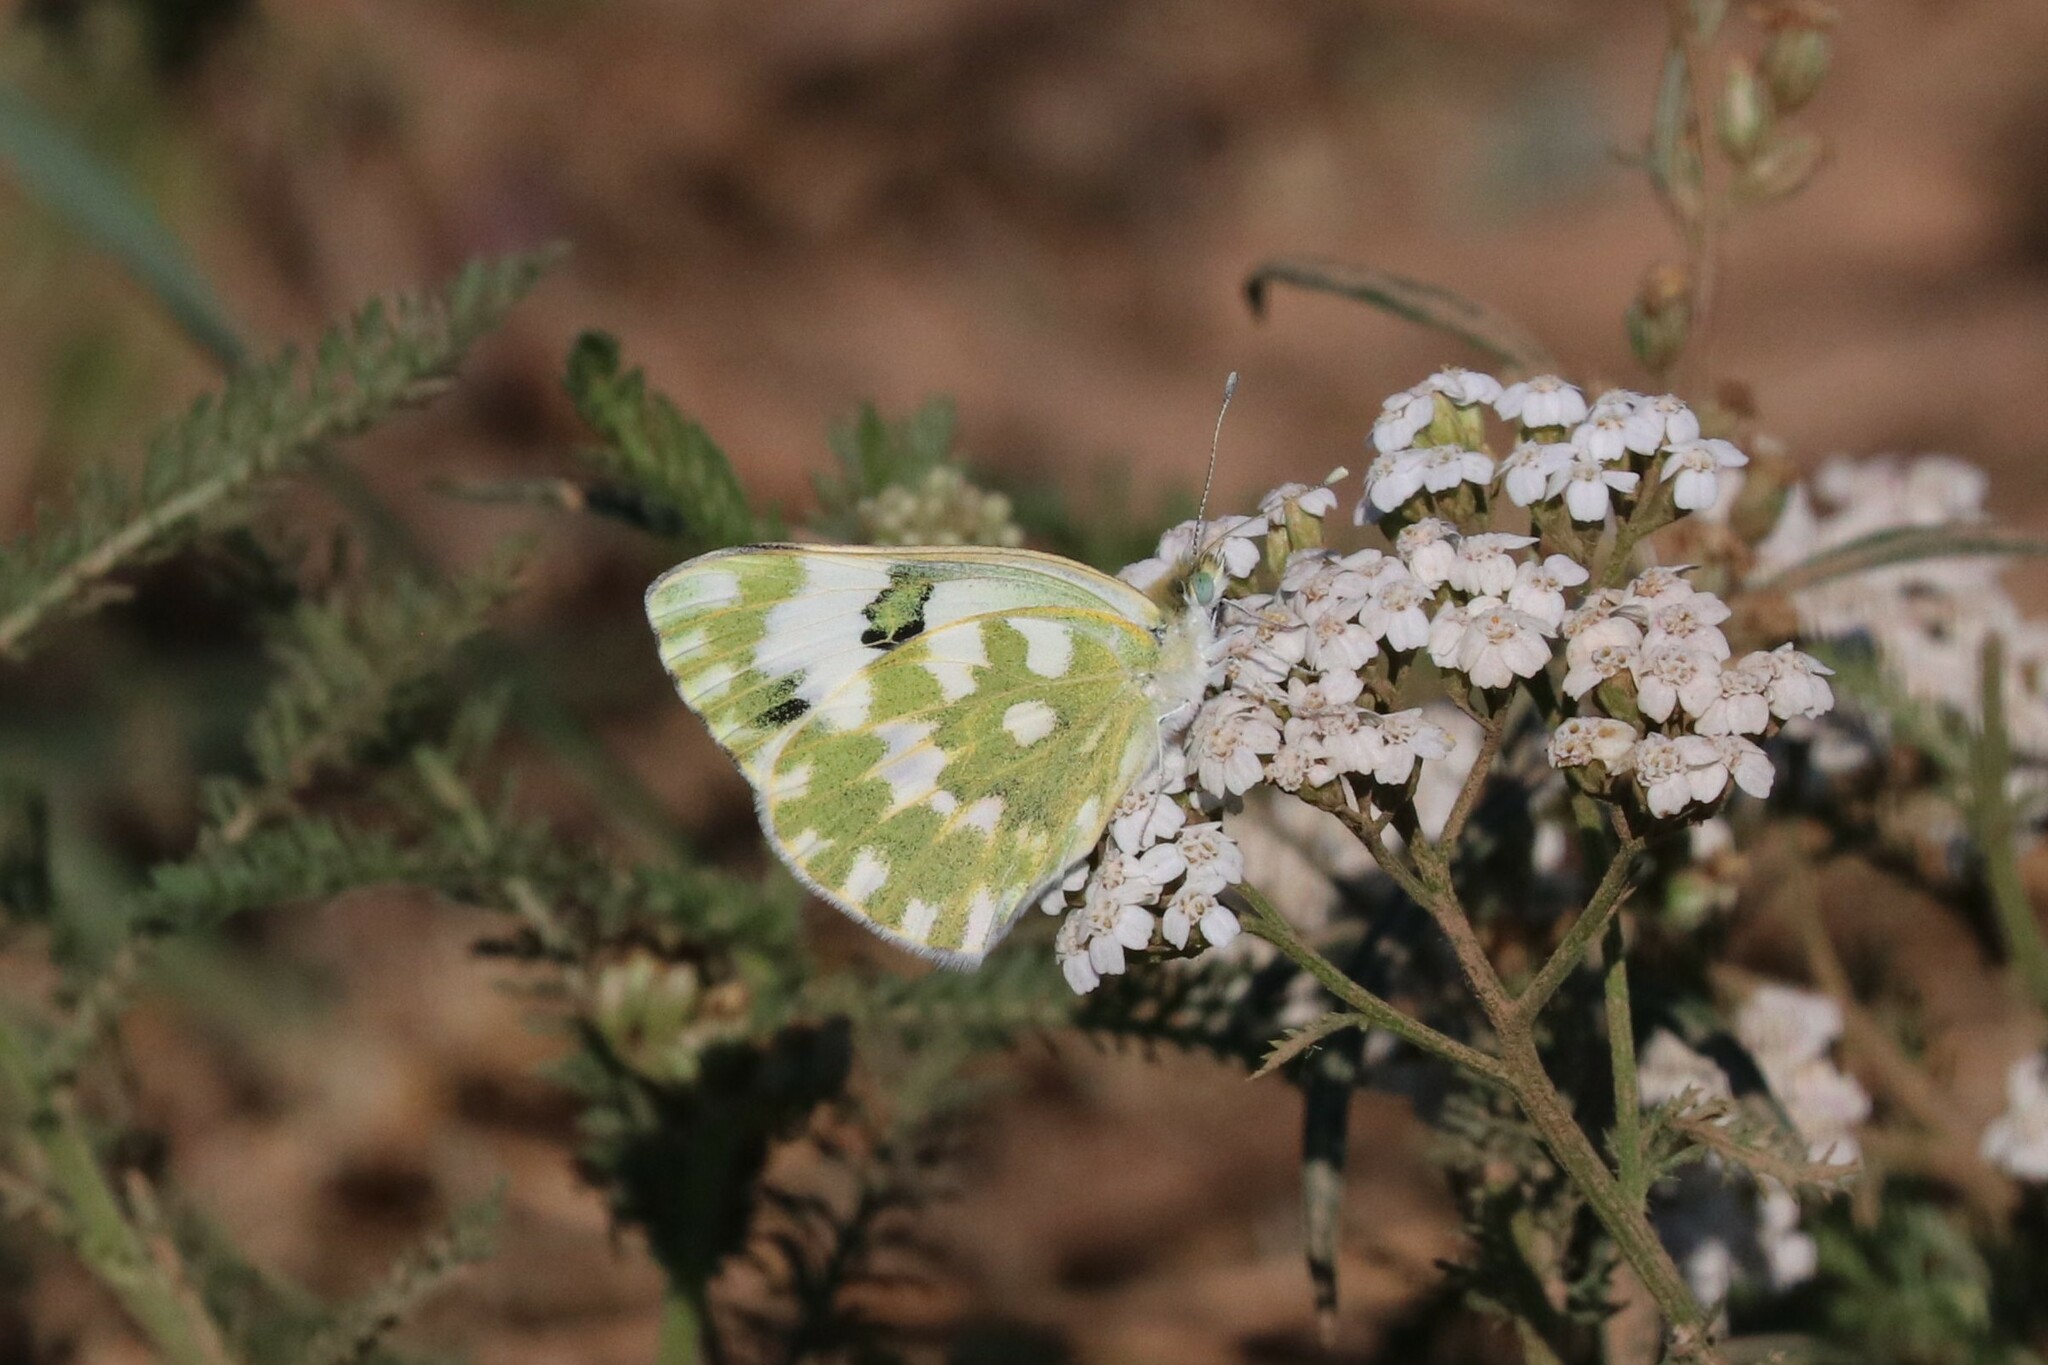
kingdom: Animalia
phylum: Arthropoda
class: Insecta
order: Lepidoptera
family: Pieridae
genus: Pontia
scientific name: Pontia edusa
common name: Eastern bath white
